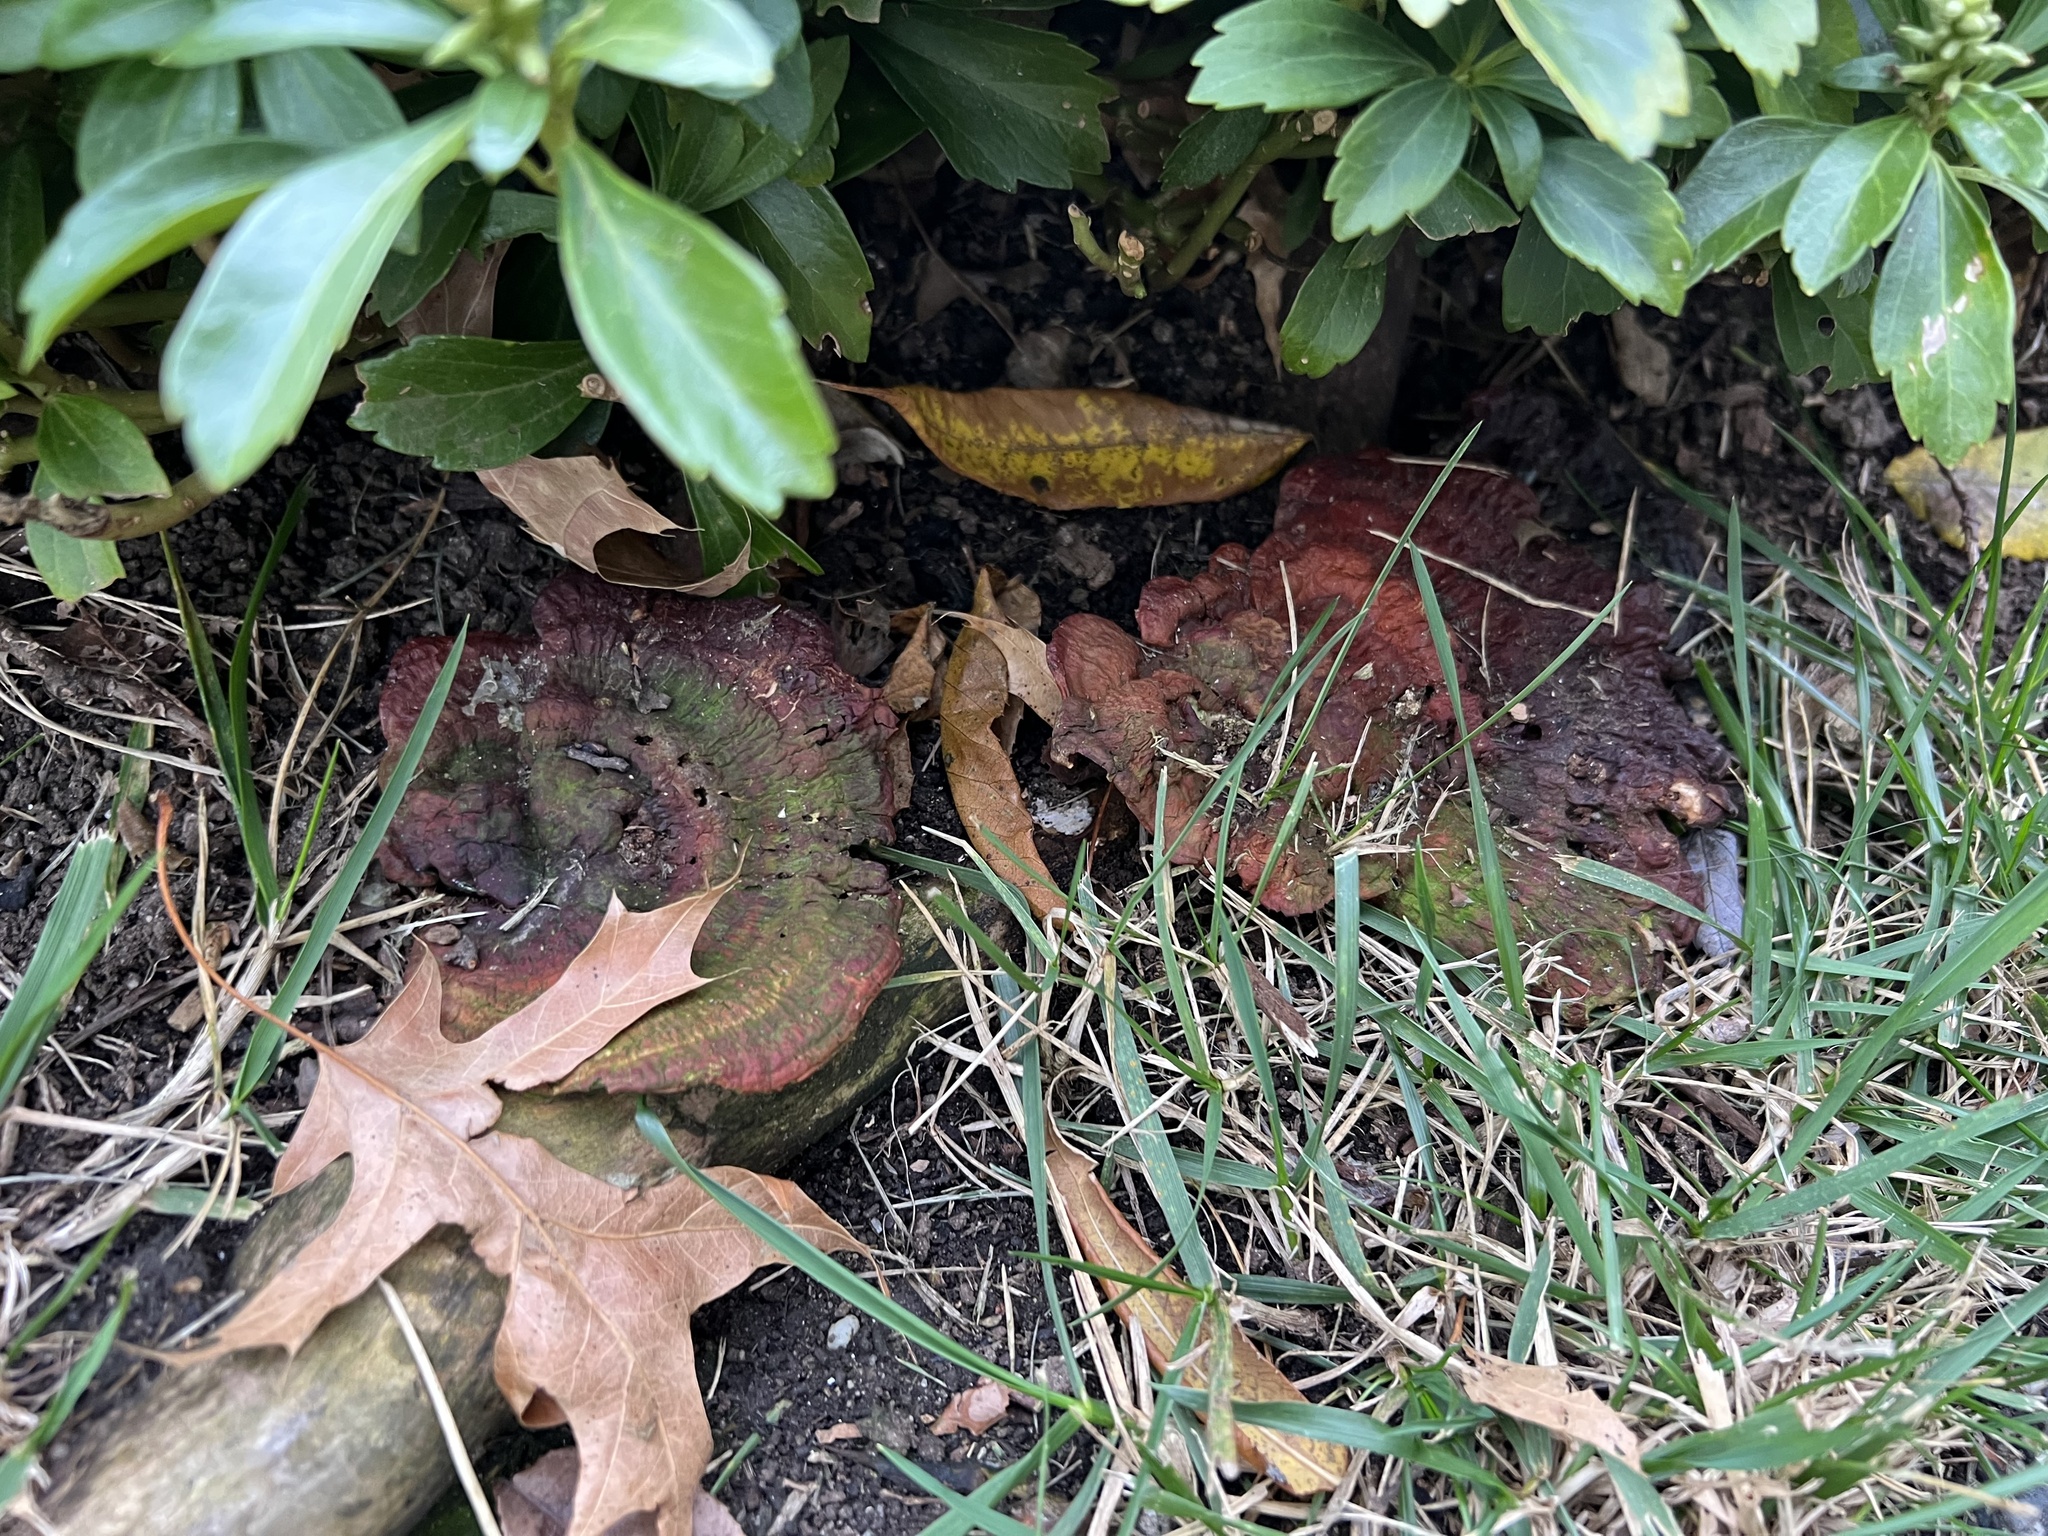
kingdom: Fungi
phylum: Basidiomycota
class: Agaricomycetes
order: Polyporales
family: Polyporaceae
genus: Ganoderma
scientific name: Ganoderma resinaceum
